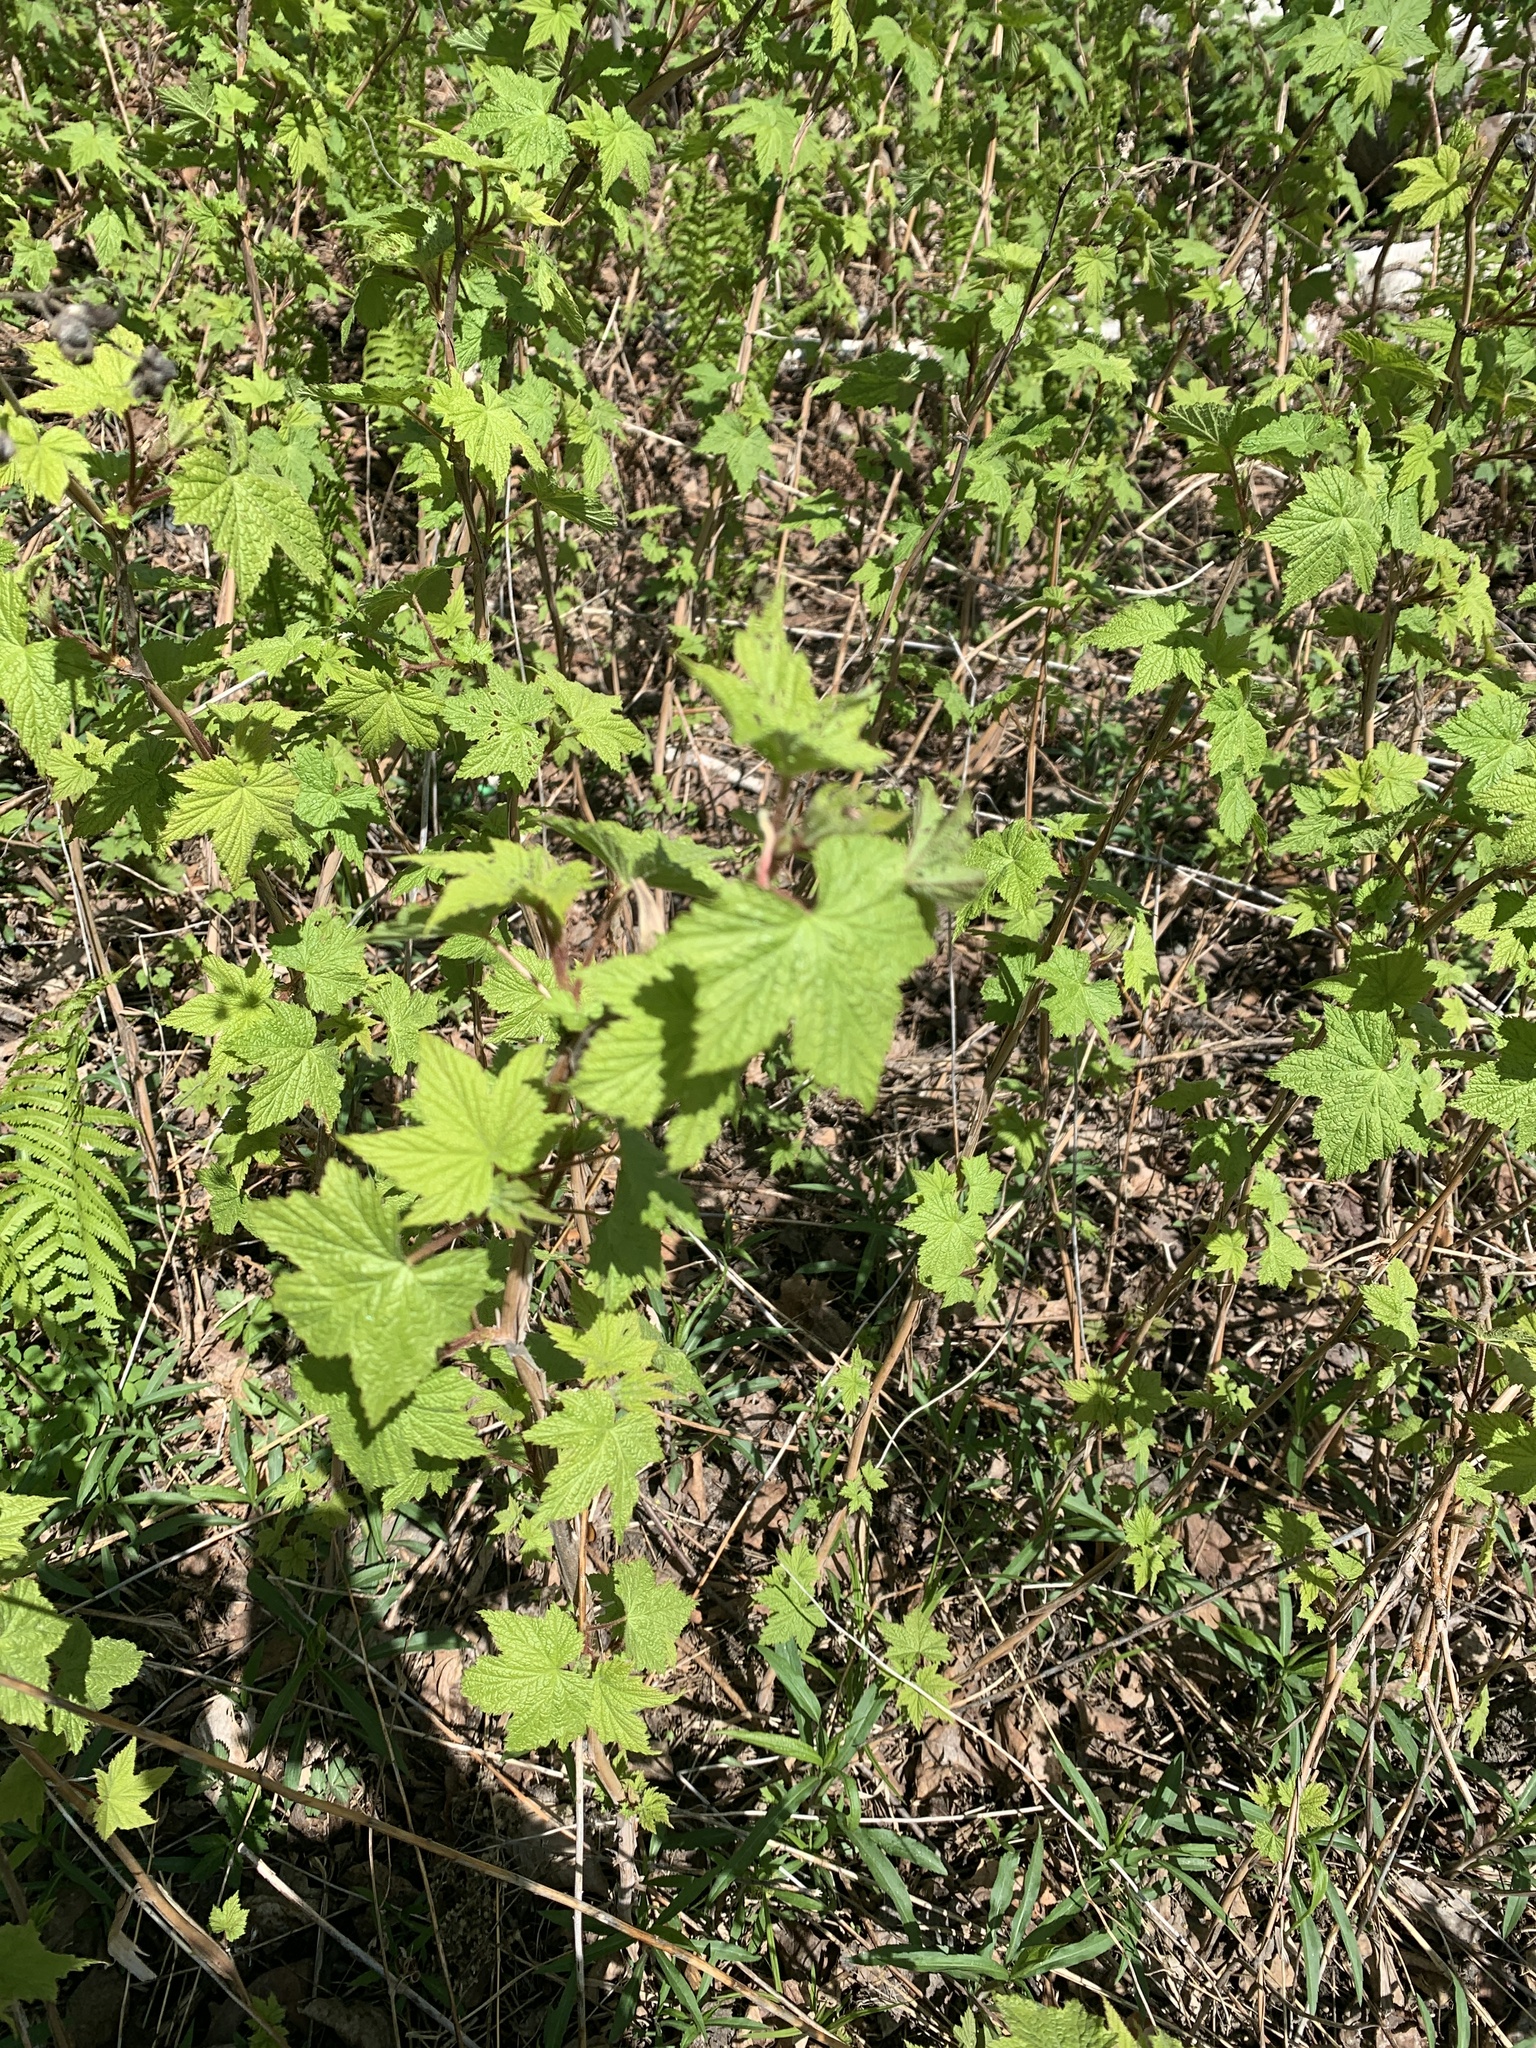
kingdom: Plantae
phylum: Tracheophyta
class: Magnoliopsida
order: Rosales
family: Rosaceae
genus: Rubus
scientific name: Rubus odoratus
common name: Purple-flowered raspberry
